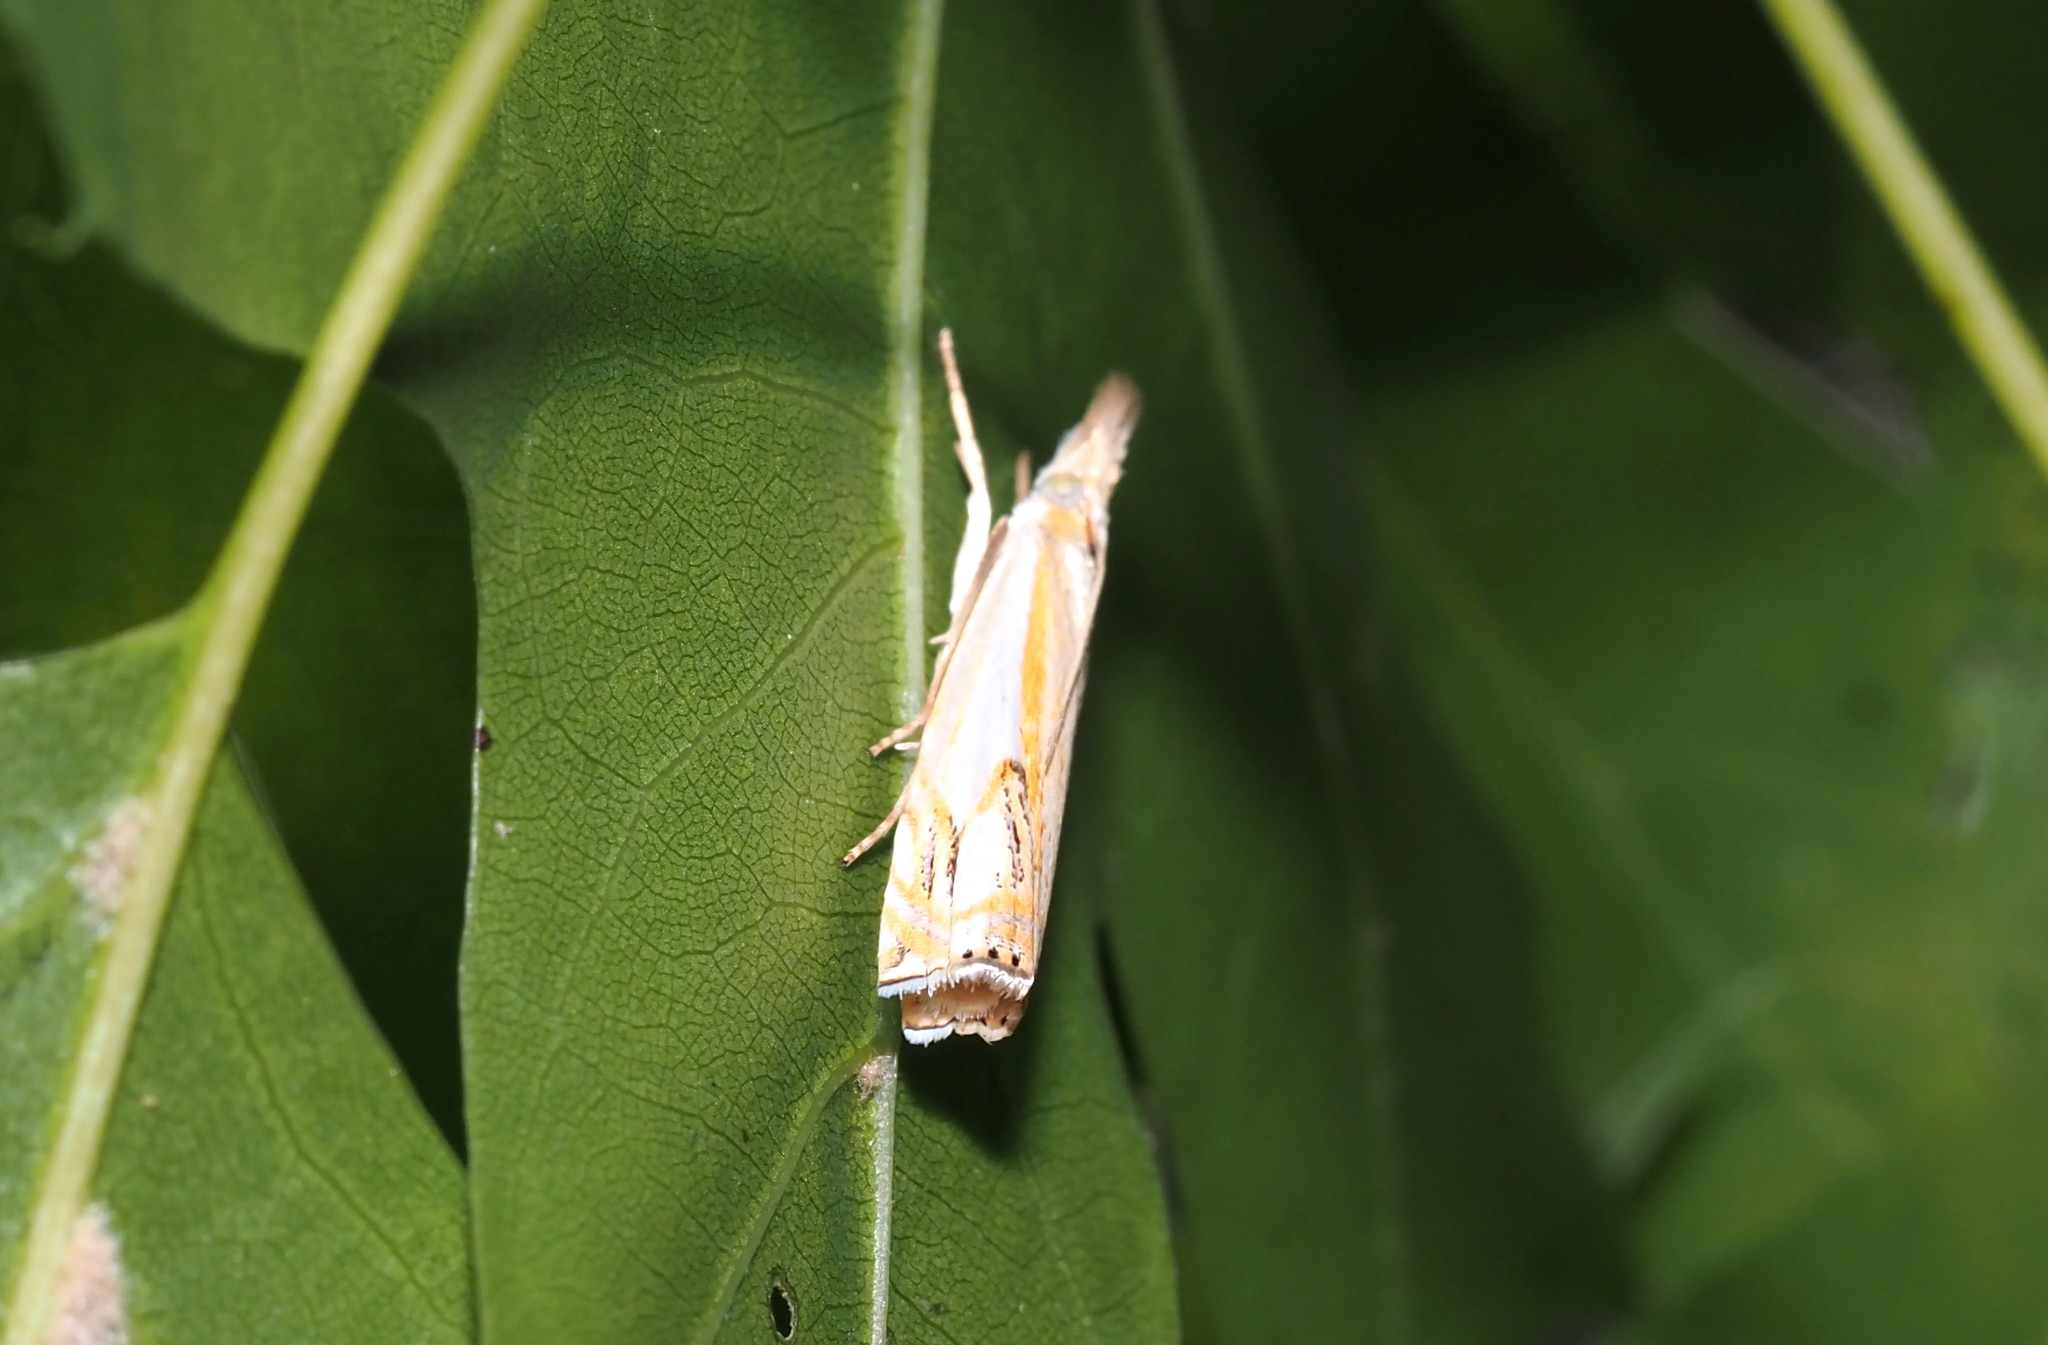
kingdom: Animalia
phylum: Arthropoda
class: Insecta
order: Lepidoptera
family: Crambidae
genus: Crambus
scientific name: Crambus agitatellus
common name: Double-banded grass-veneer
